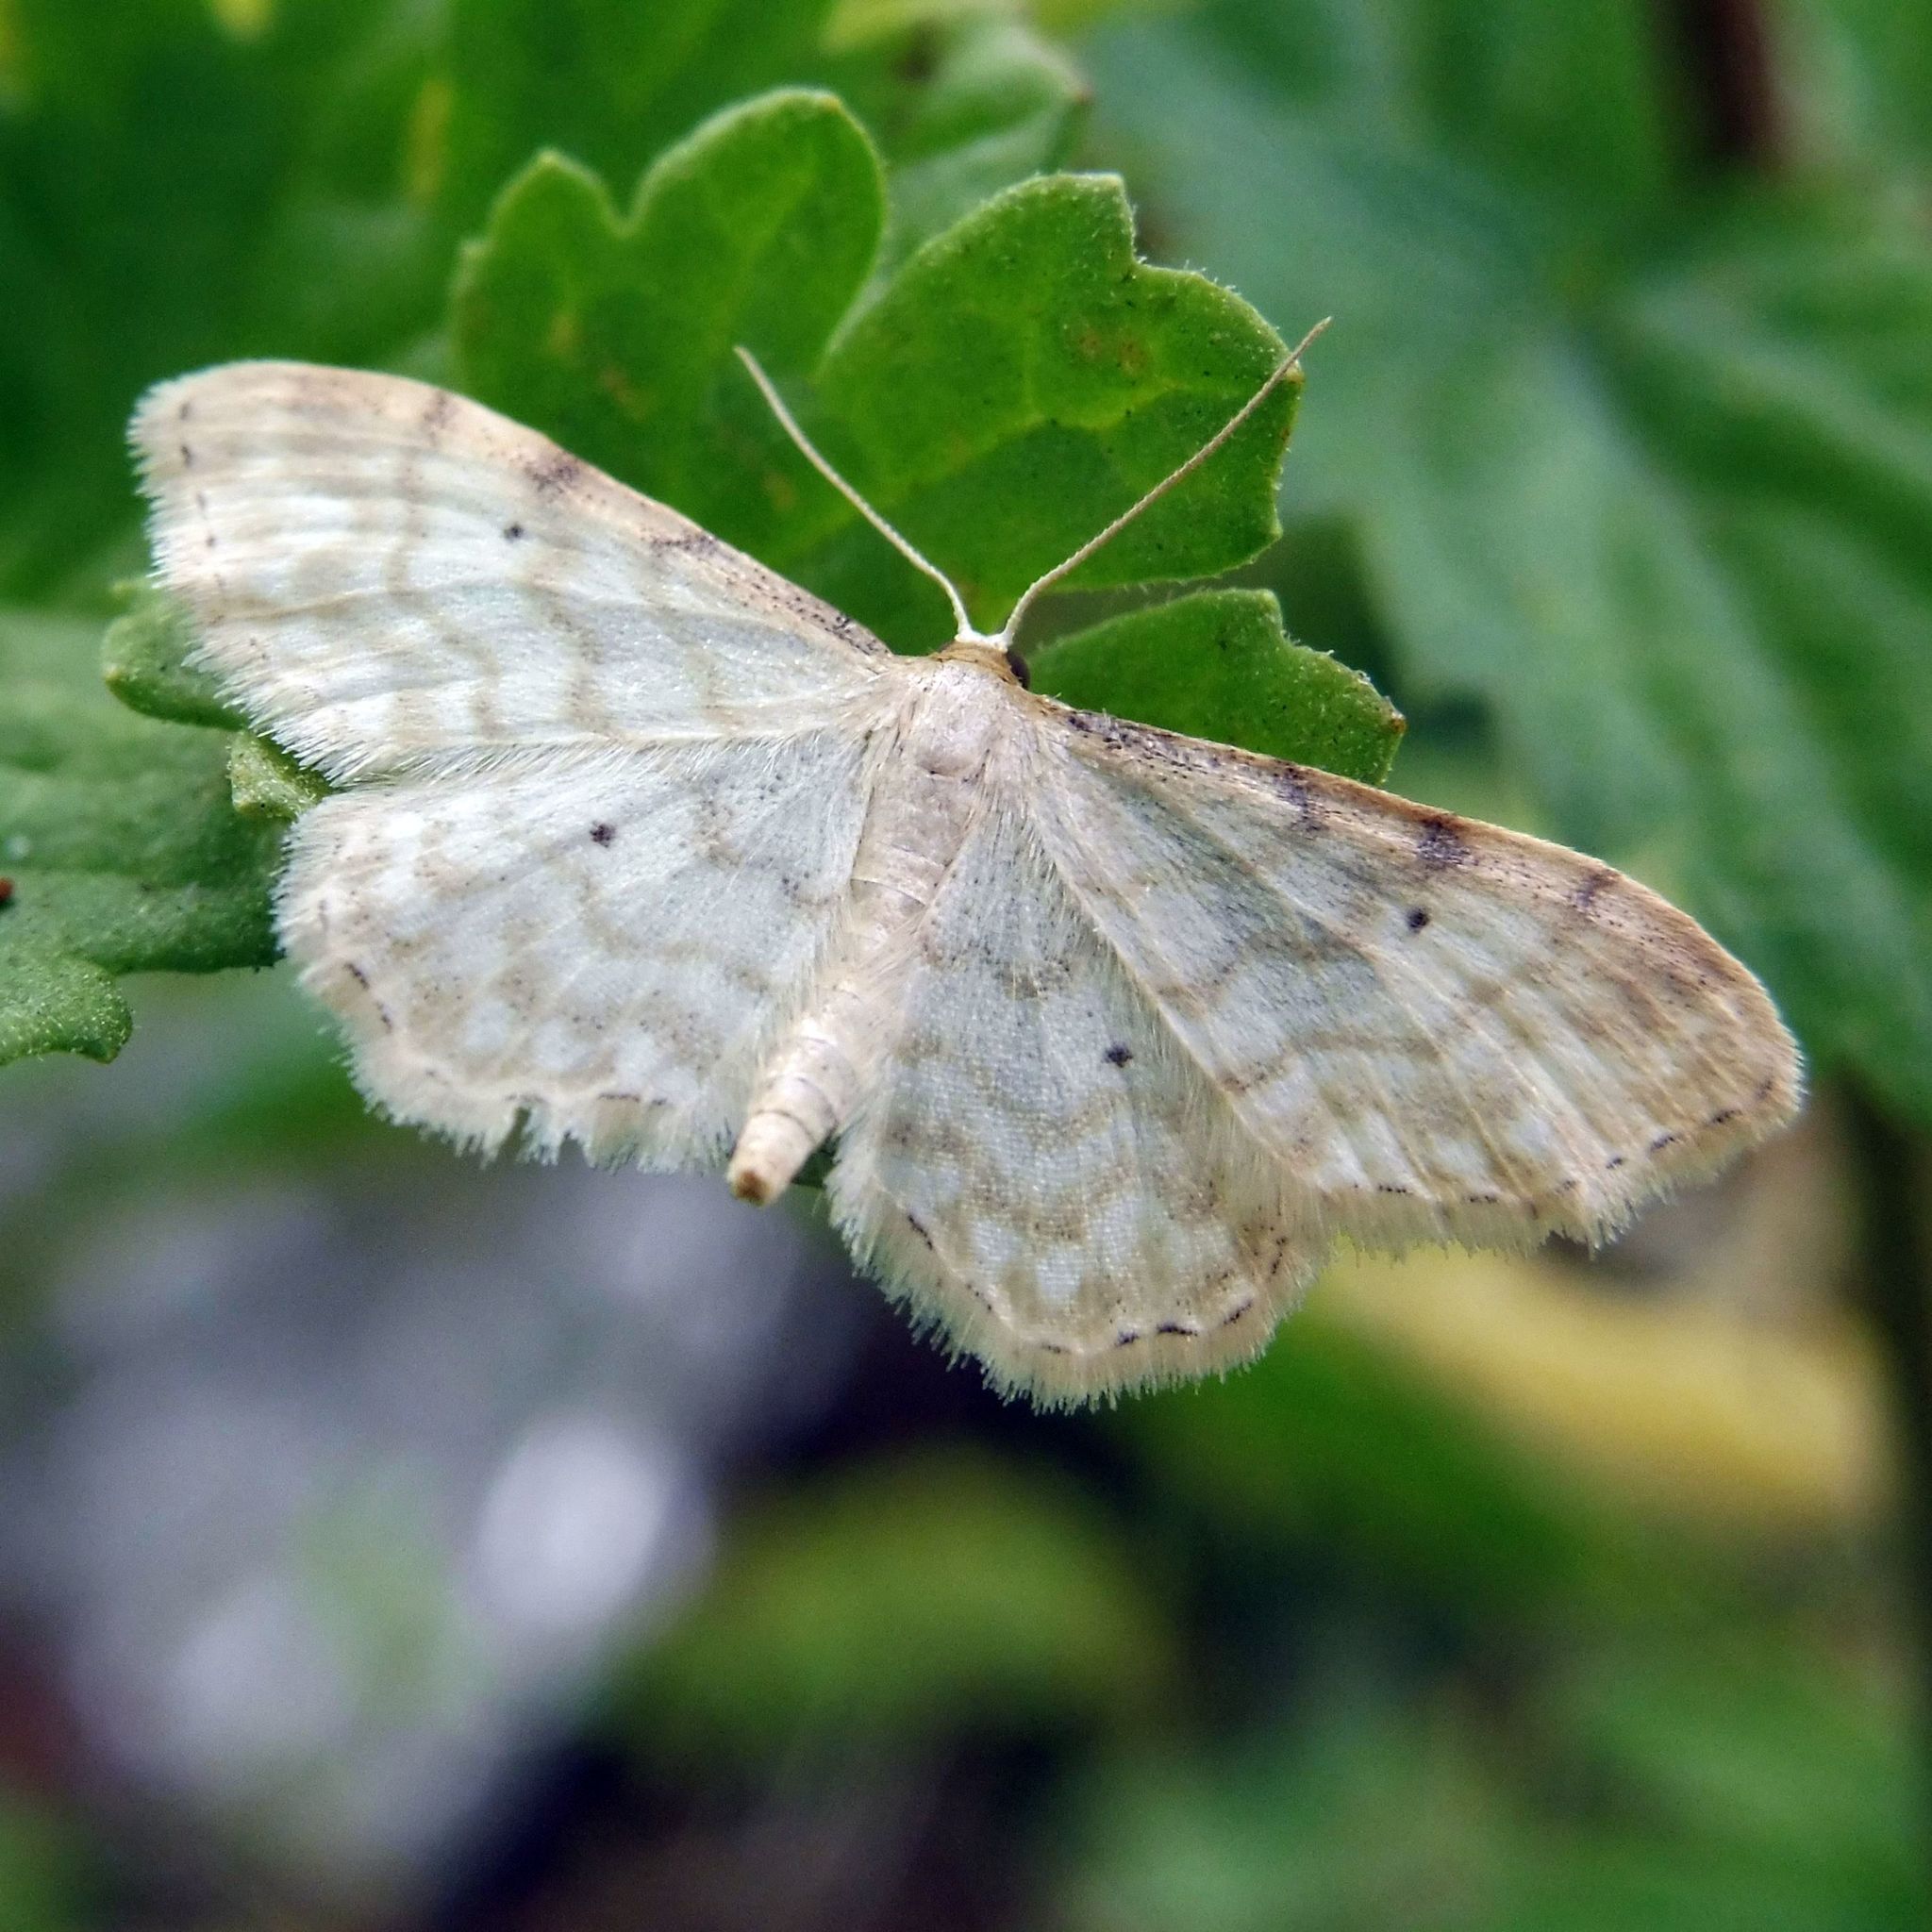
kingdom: Animalia
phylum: Arthropoda
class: Insecta
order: Lepidoptera
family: Geometridae
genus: Idaea
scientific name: Idaea fuscovenosa
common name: Dwarf cream wave
